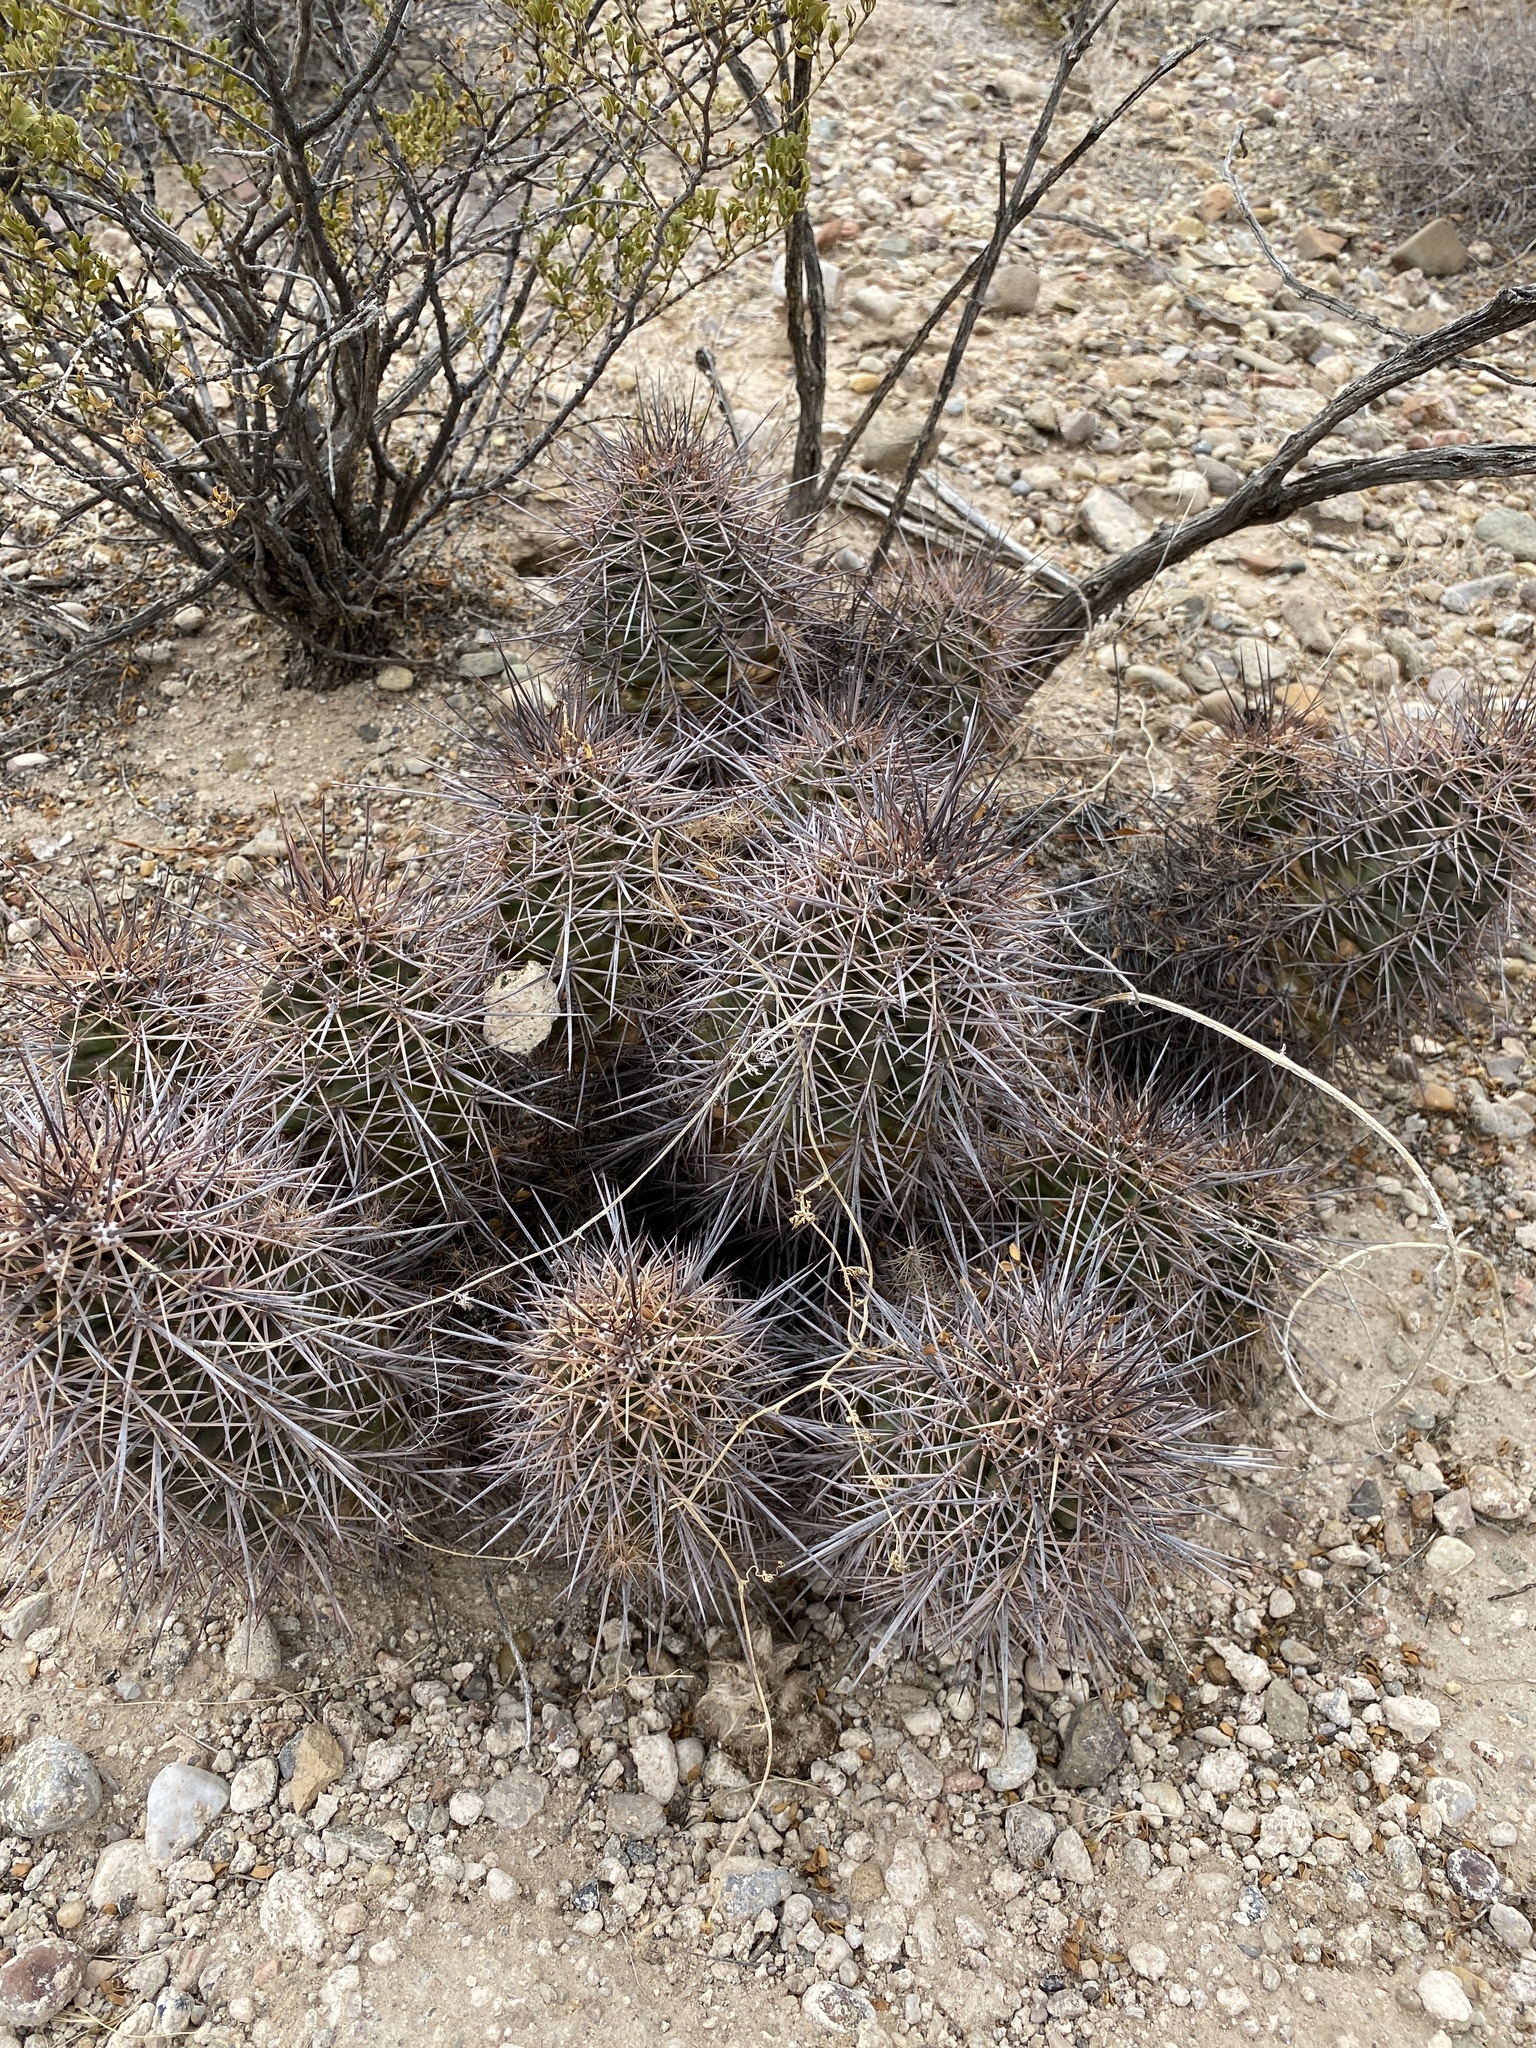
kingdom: Plantae
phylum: Tracheophyta
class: Magnoliopsida
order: Caryophyllales
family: Cactaceae
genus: Echinocereus
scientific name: Echinocereus coccineus
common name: Scarlet hedgehog cactus
